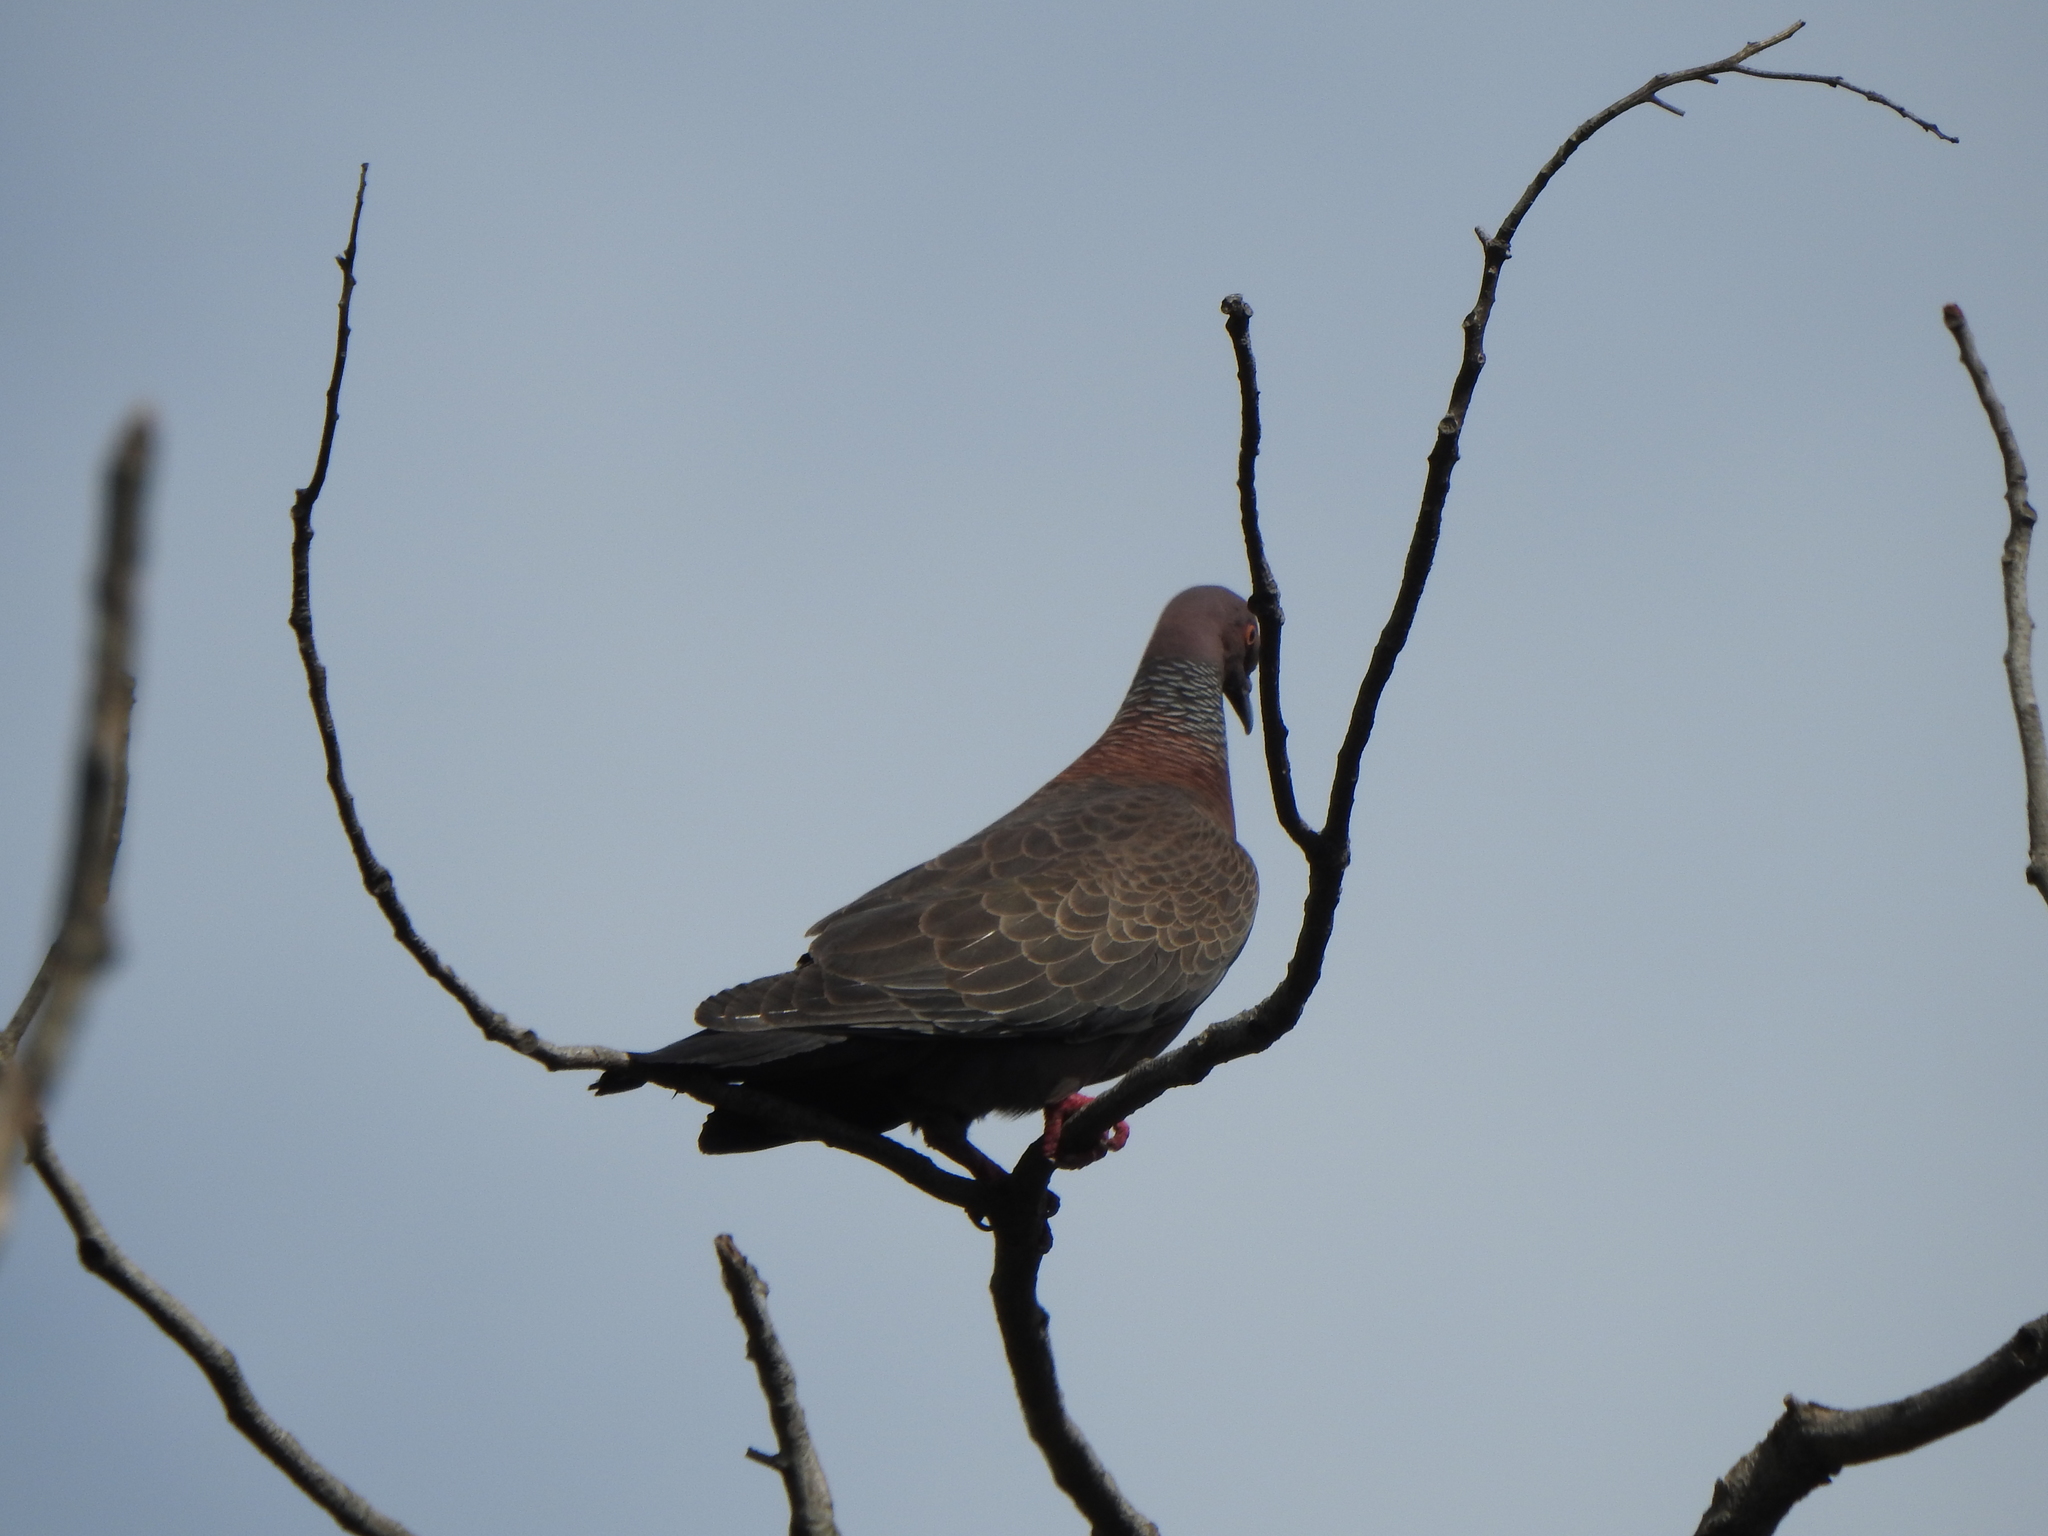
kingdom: Animalia
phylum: Chordata
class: Aves
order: Columbiformes
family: Columbidae
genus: Patagioenas
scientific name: Patagioenas picazuro
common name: Picazuro pigeon
